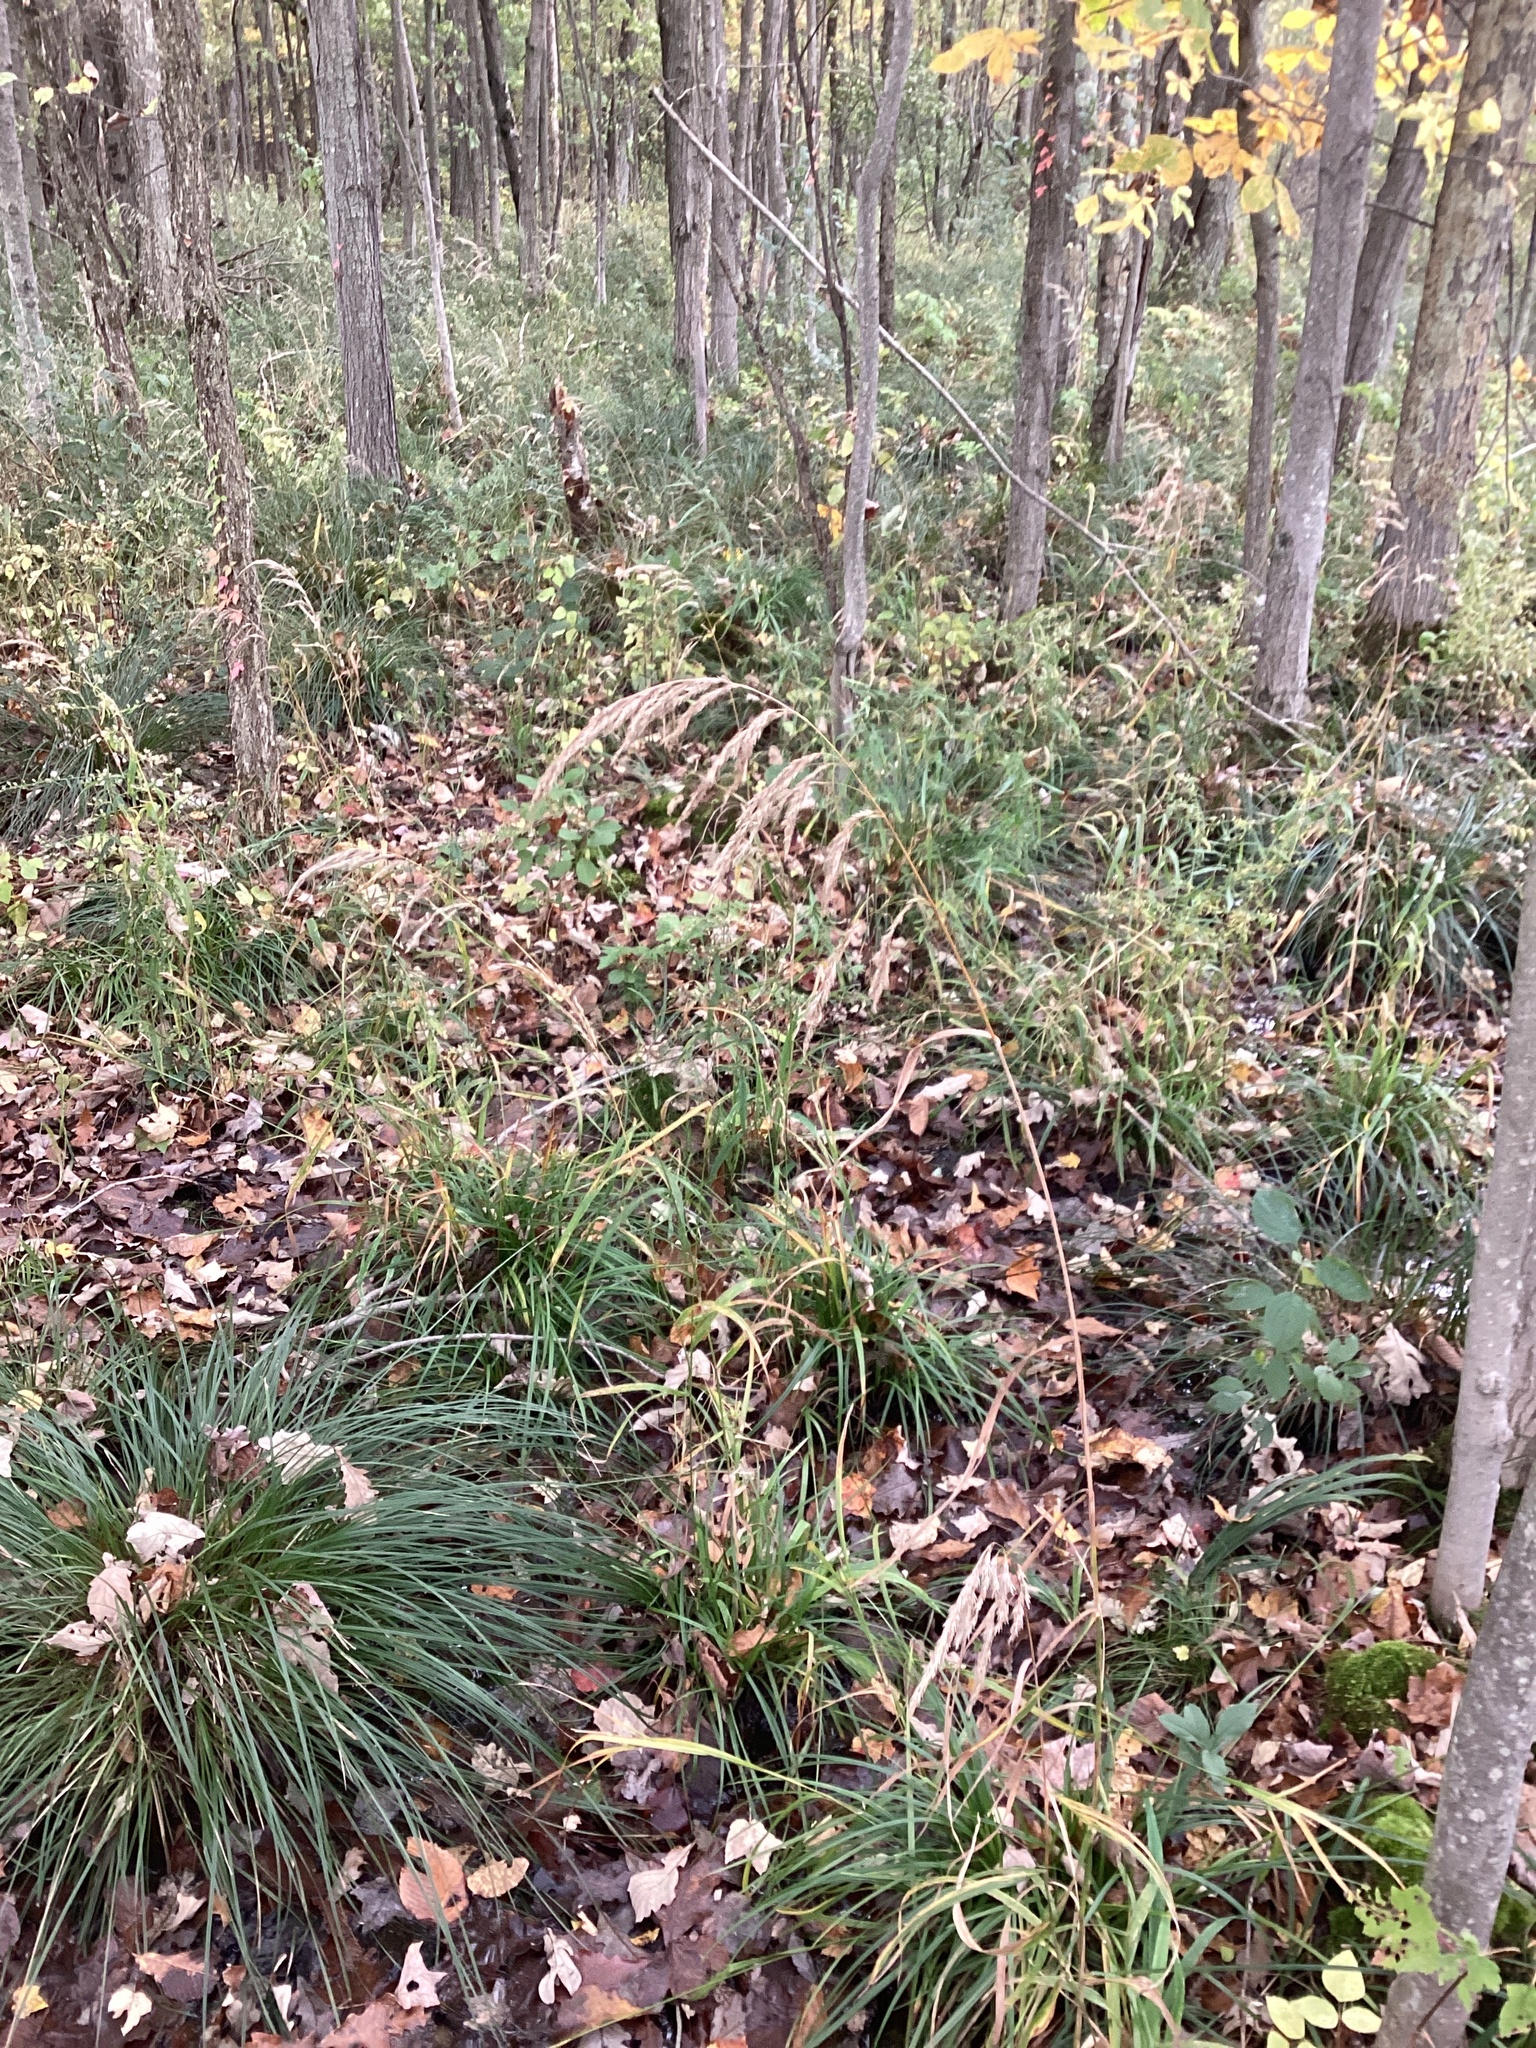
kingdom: Plantae
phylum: Tracheophyta
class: Liliopsida
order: Poales
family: Poaceae
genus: Phalaris
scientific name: Phalaris arundinacea
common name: Reed canary-grass
